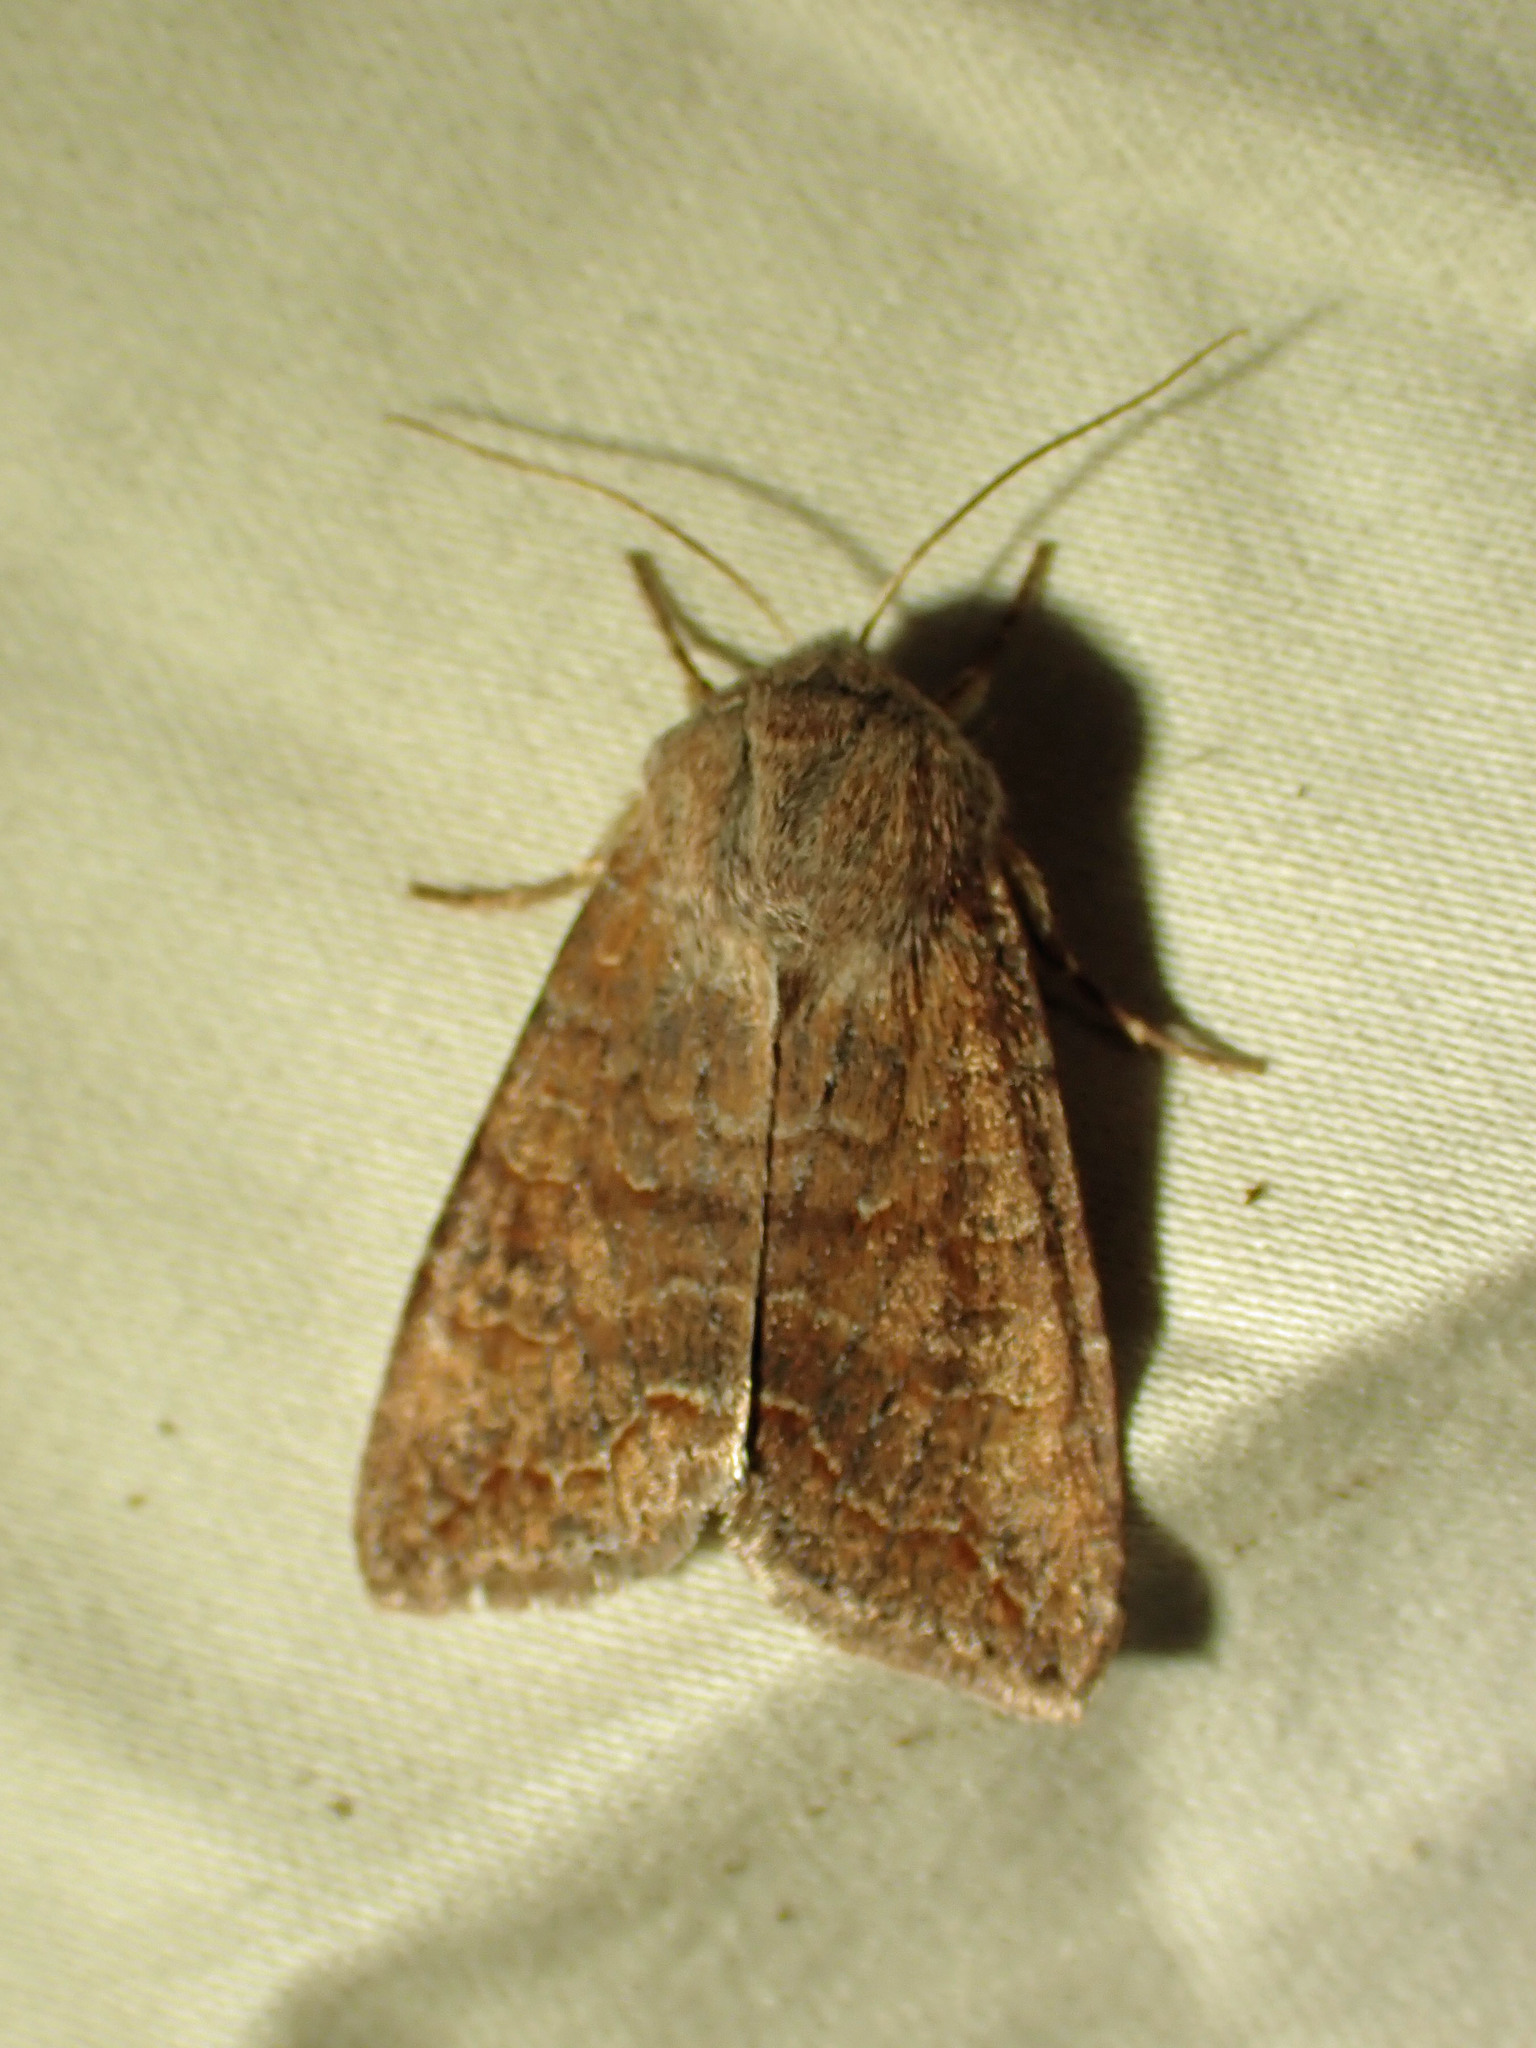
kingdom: Animalia
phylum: Arthropoda
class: Insecta
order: Lepidoptera
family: Noctuidae
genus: Orthosia
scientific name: Orthosia revicta
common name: Rusty whitesided caterpillar
